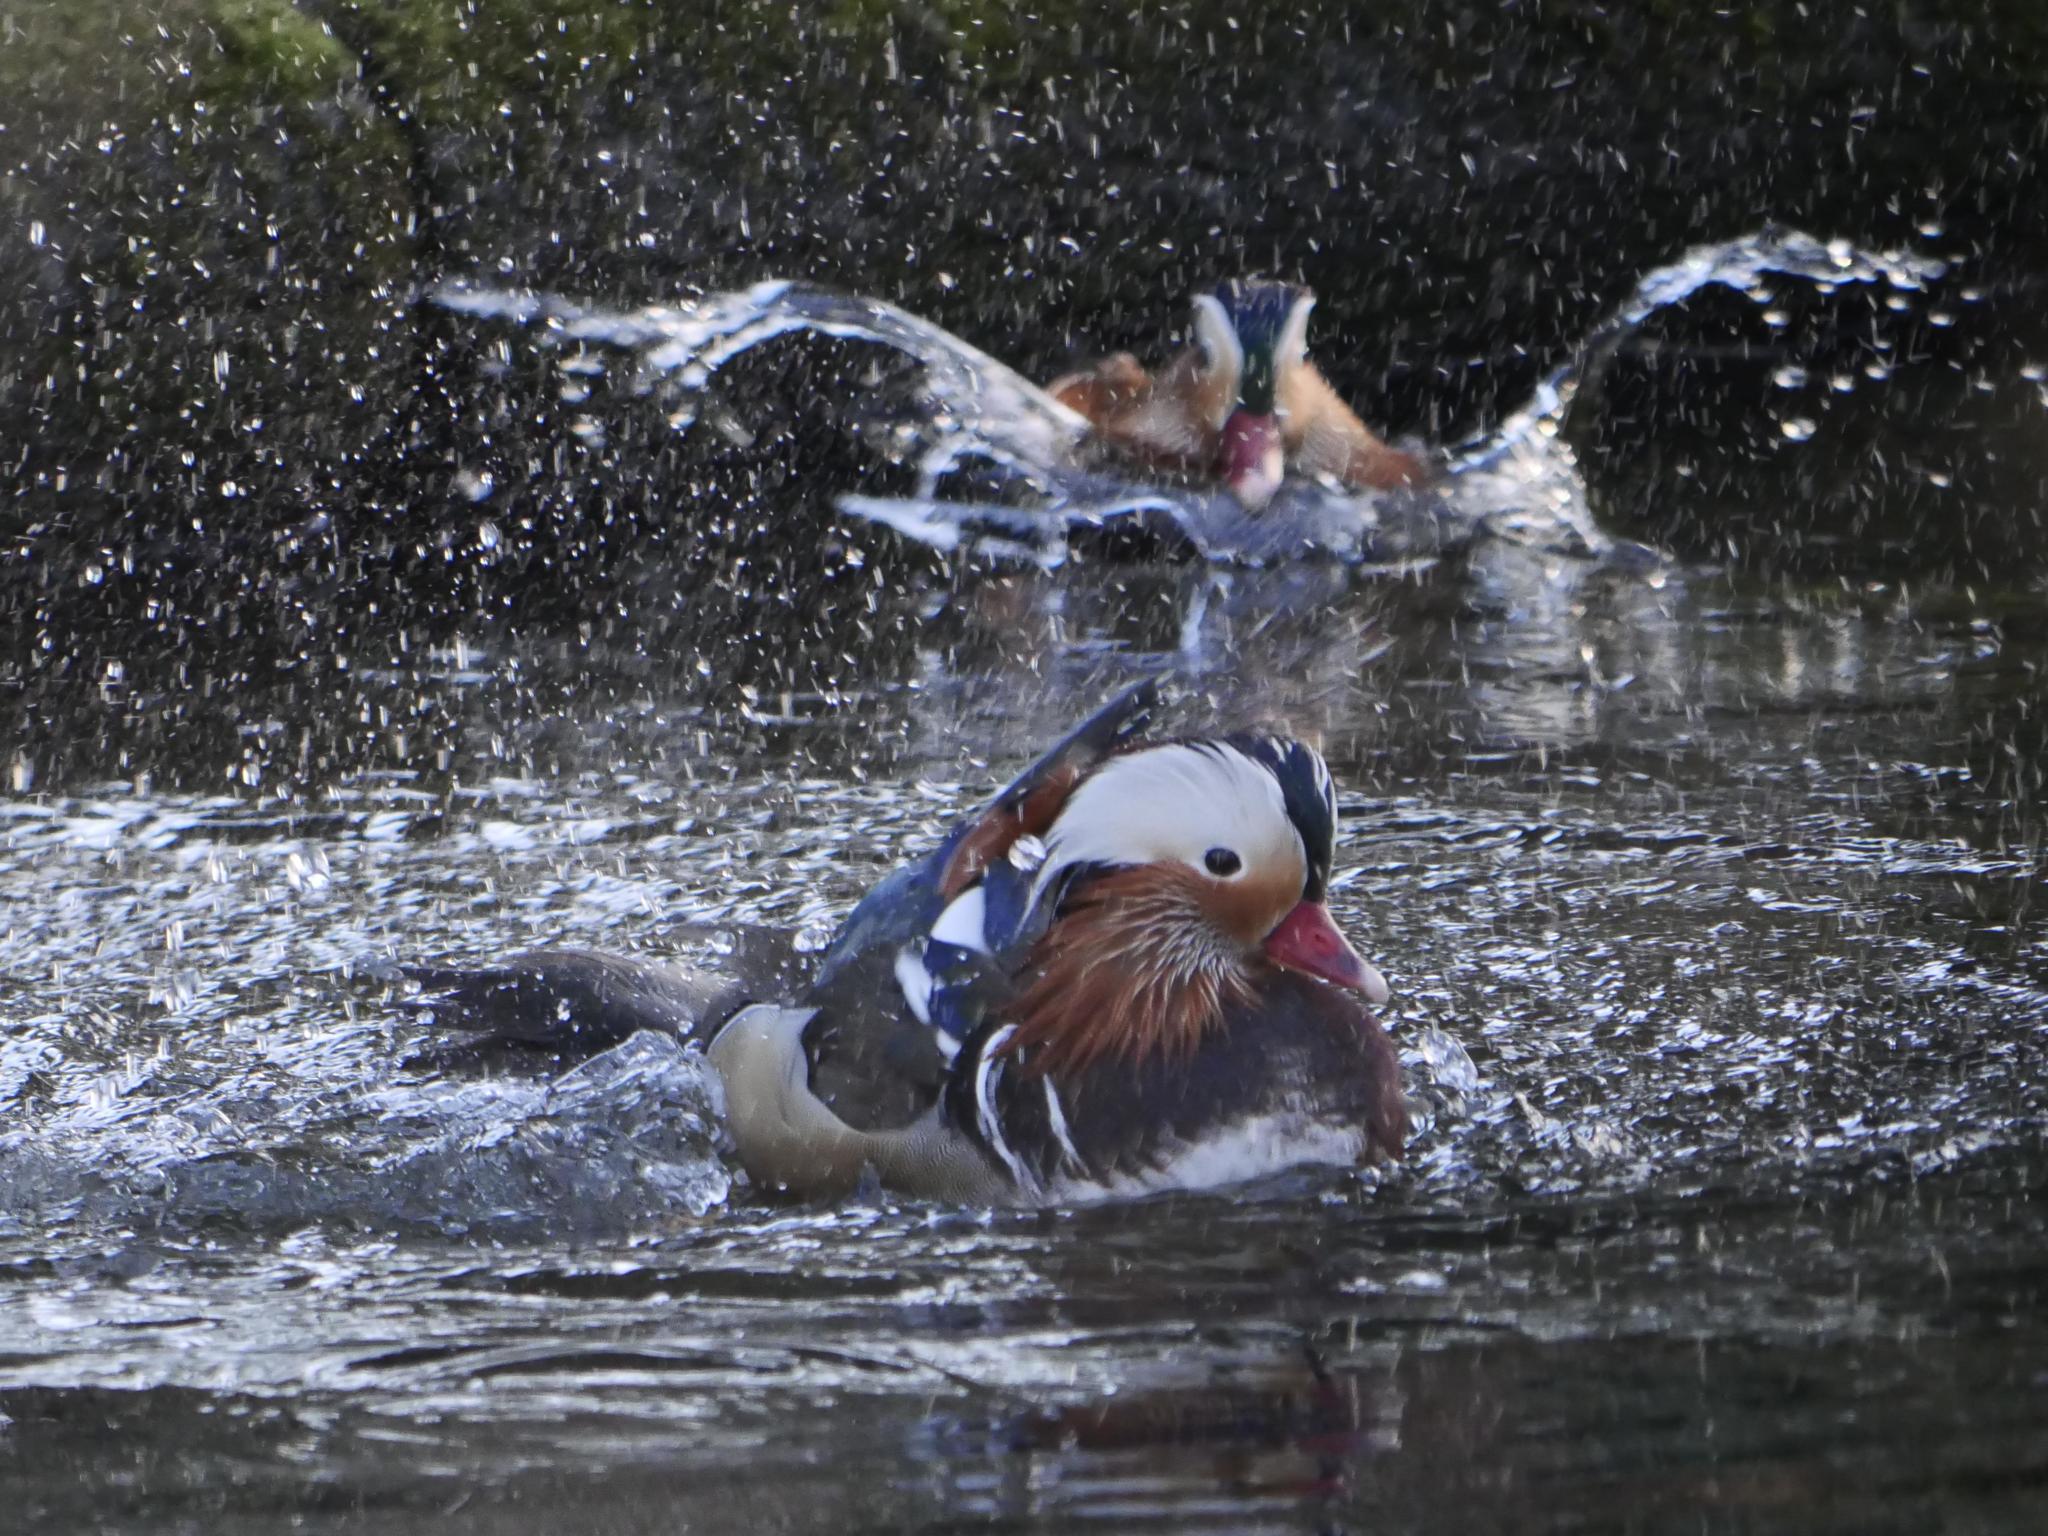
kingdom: Animalia
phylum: Chordata
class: Aves
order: Anseriformes
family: Anatidae
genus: Aix
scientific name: Aix galericulata
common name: Mandarin duck
